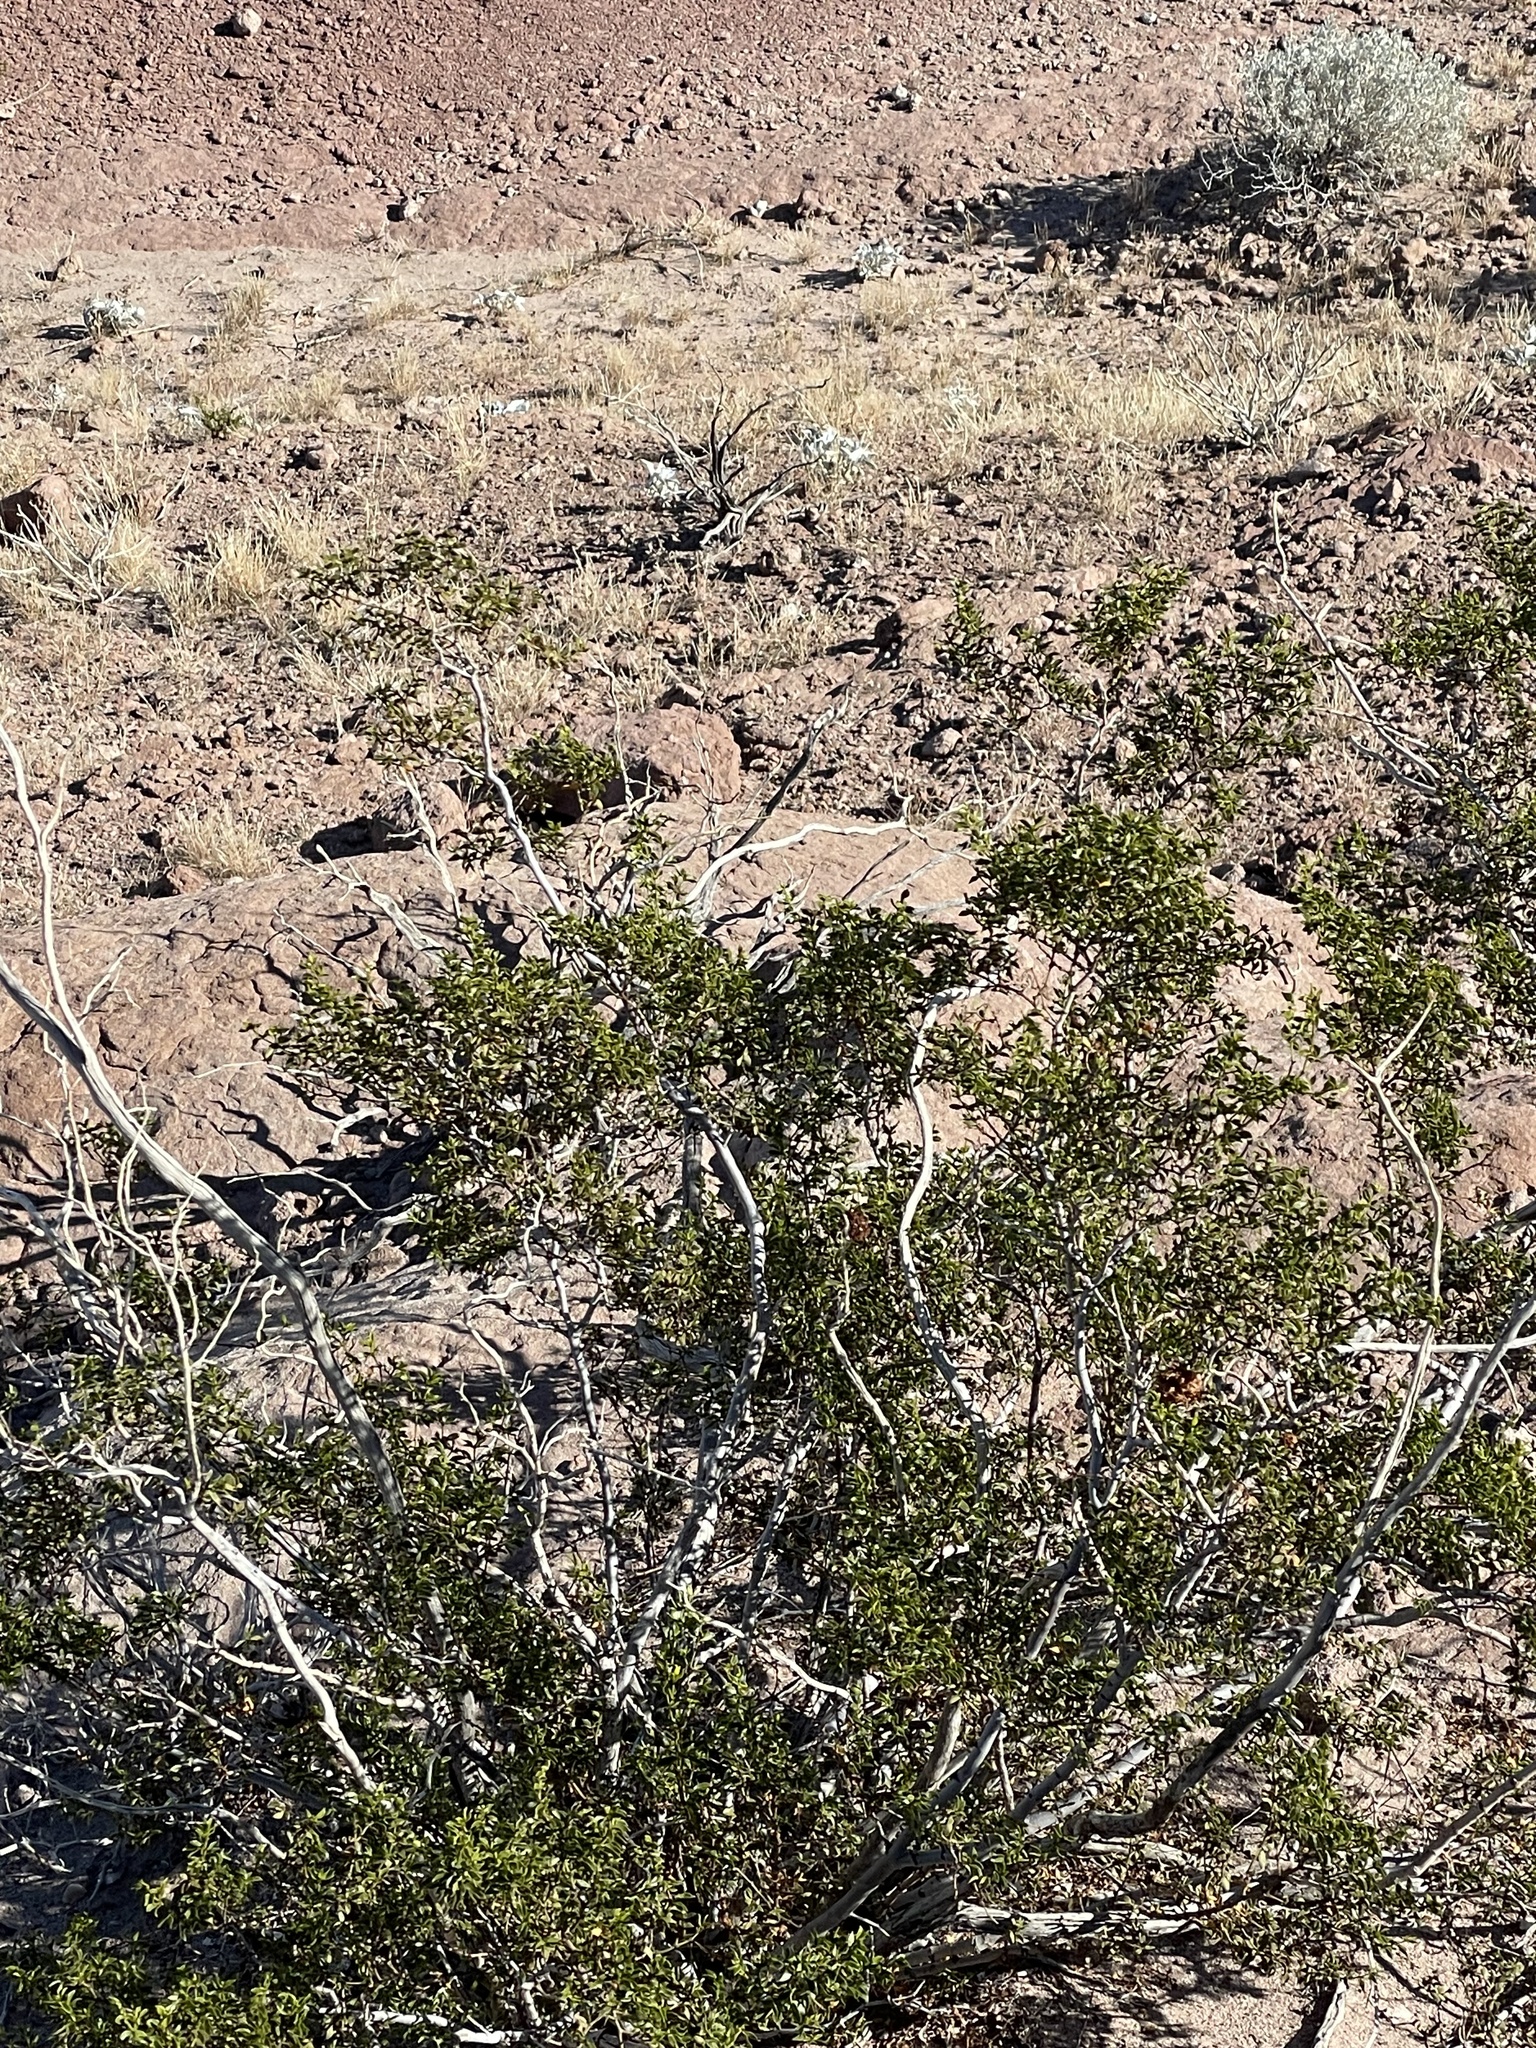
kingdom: Plantae
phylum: Tracheophyta
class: Magnoliopsida
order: Zygophyllales
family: Zygophyllaceae
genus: Larrea
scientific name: Larrea tridentata
